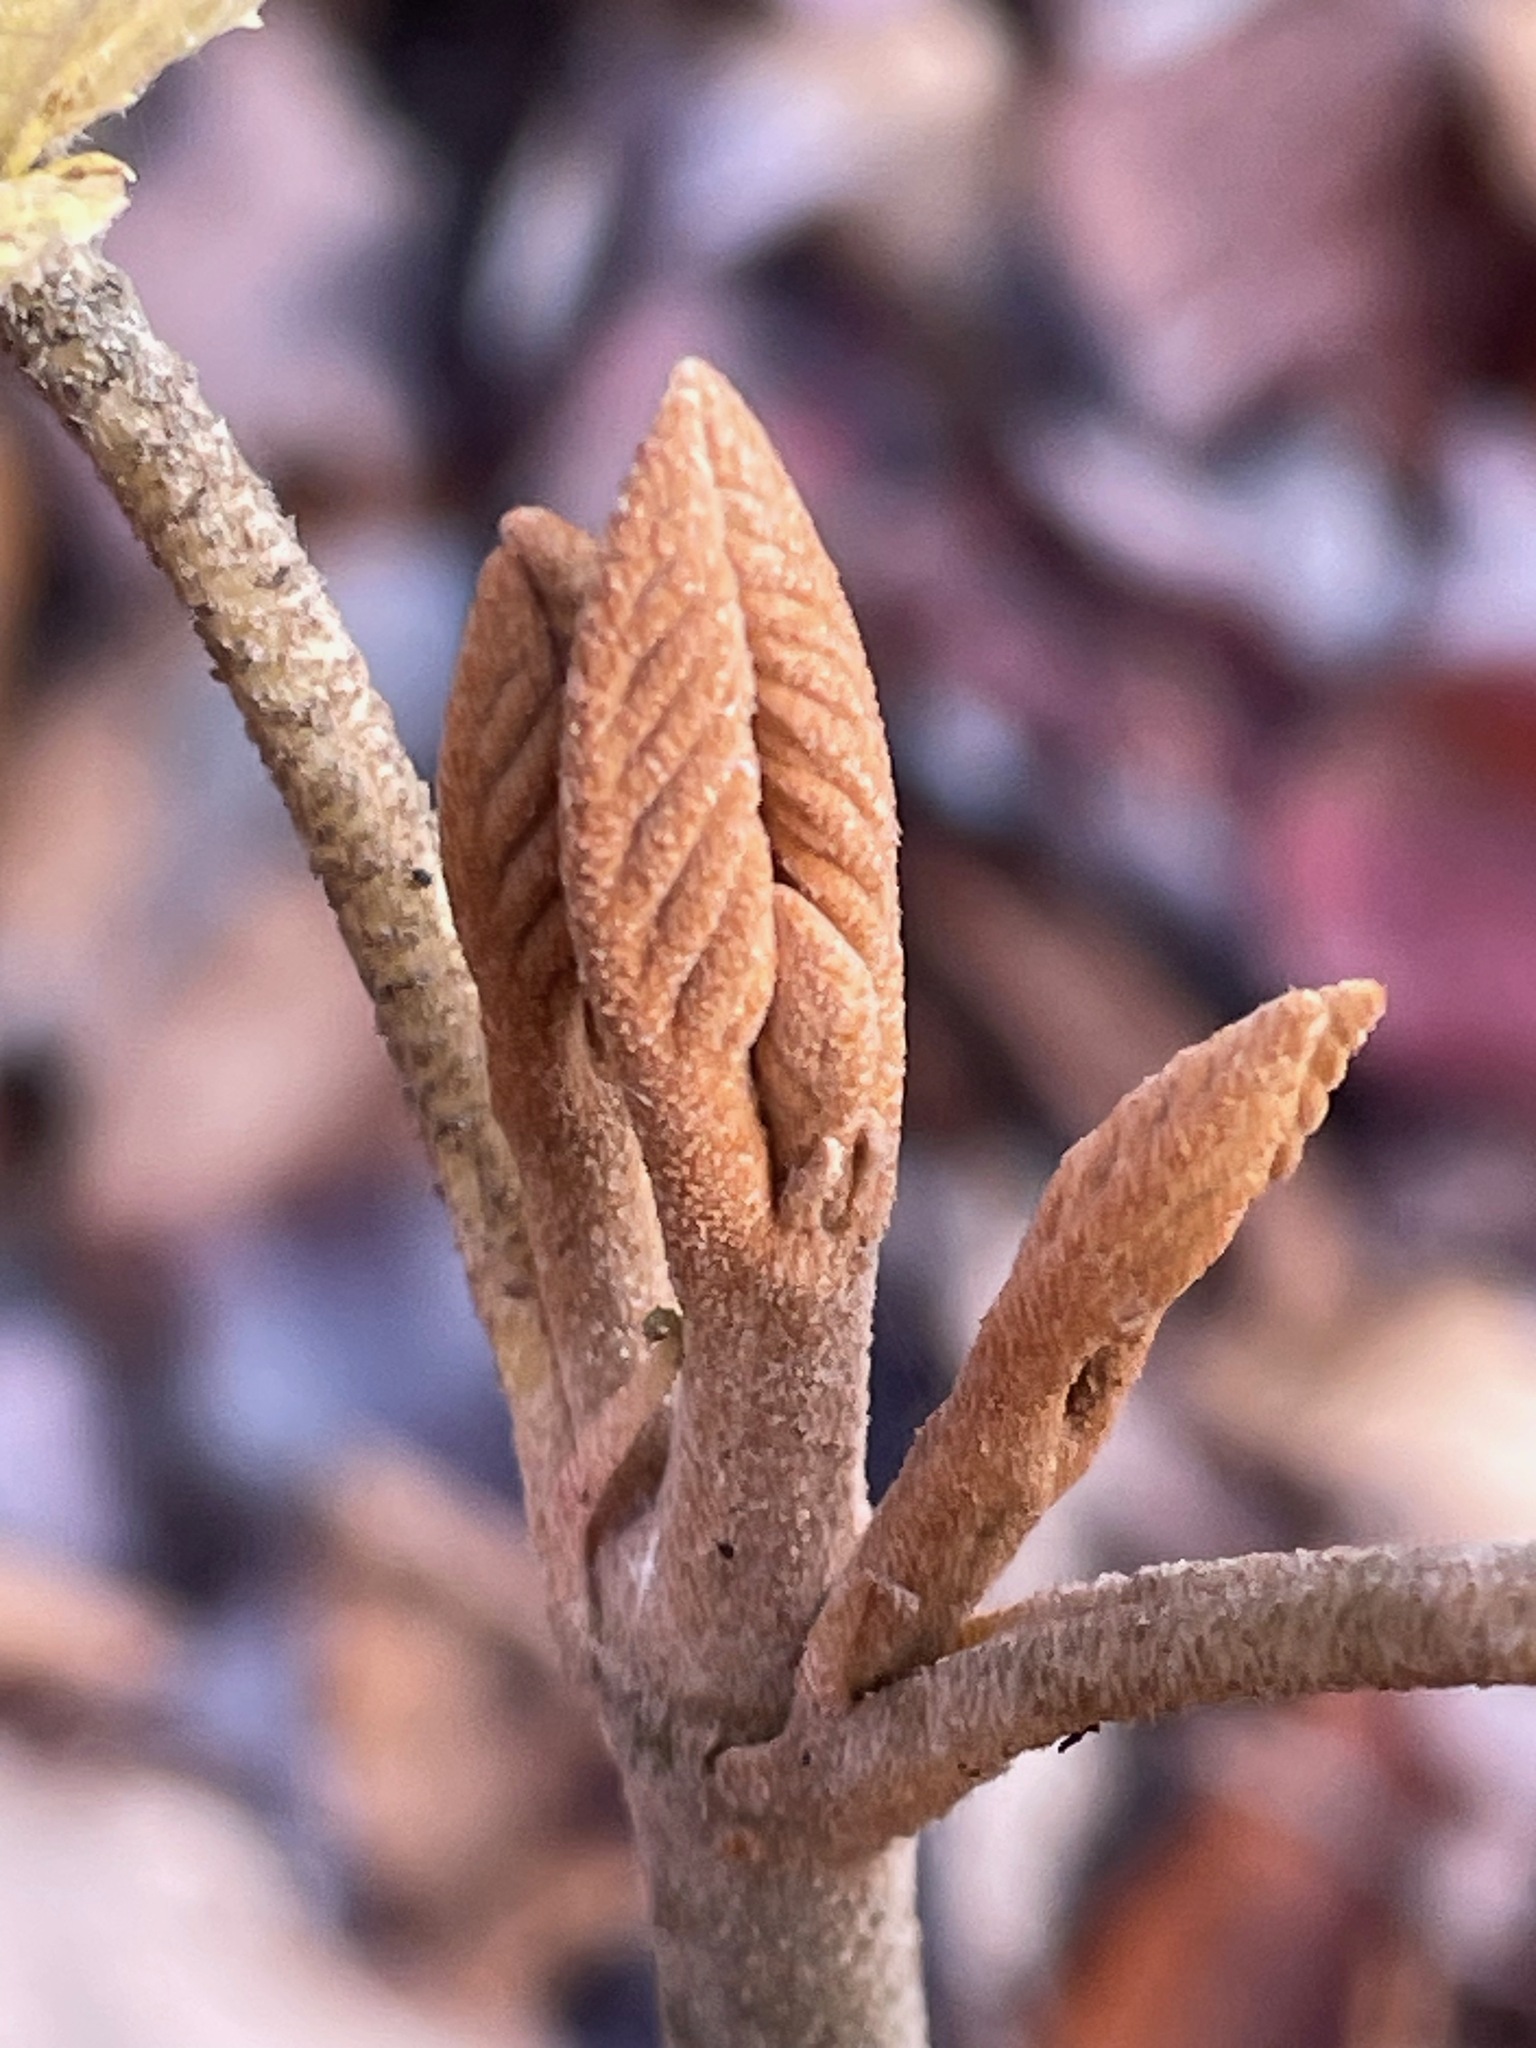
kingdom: Plantae
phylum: Tracheophyta
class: Magnoliopsida
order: Dipsacales
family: Viburnaceae
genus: Viburnum
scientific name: Viburnum lantanoides
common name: Hobblebush
